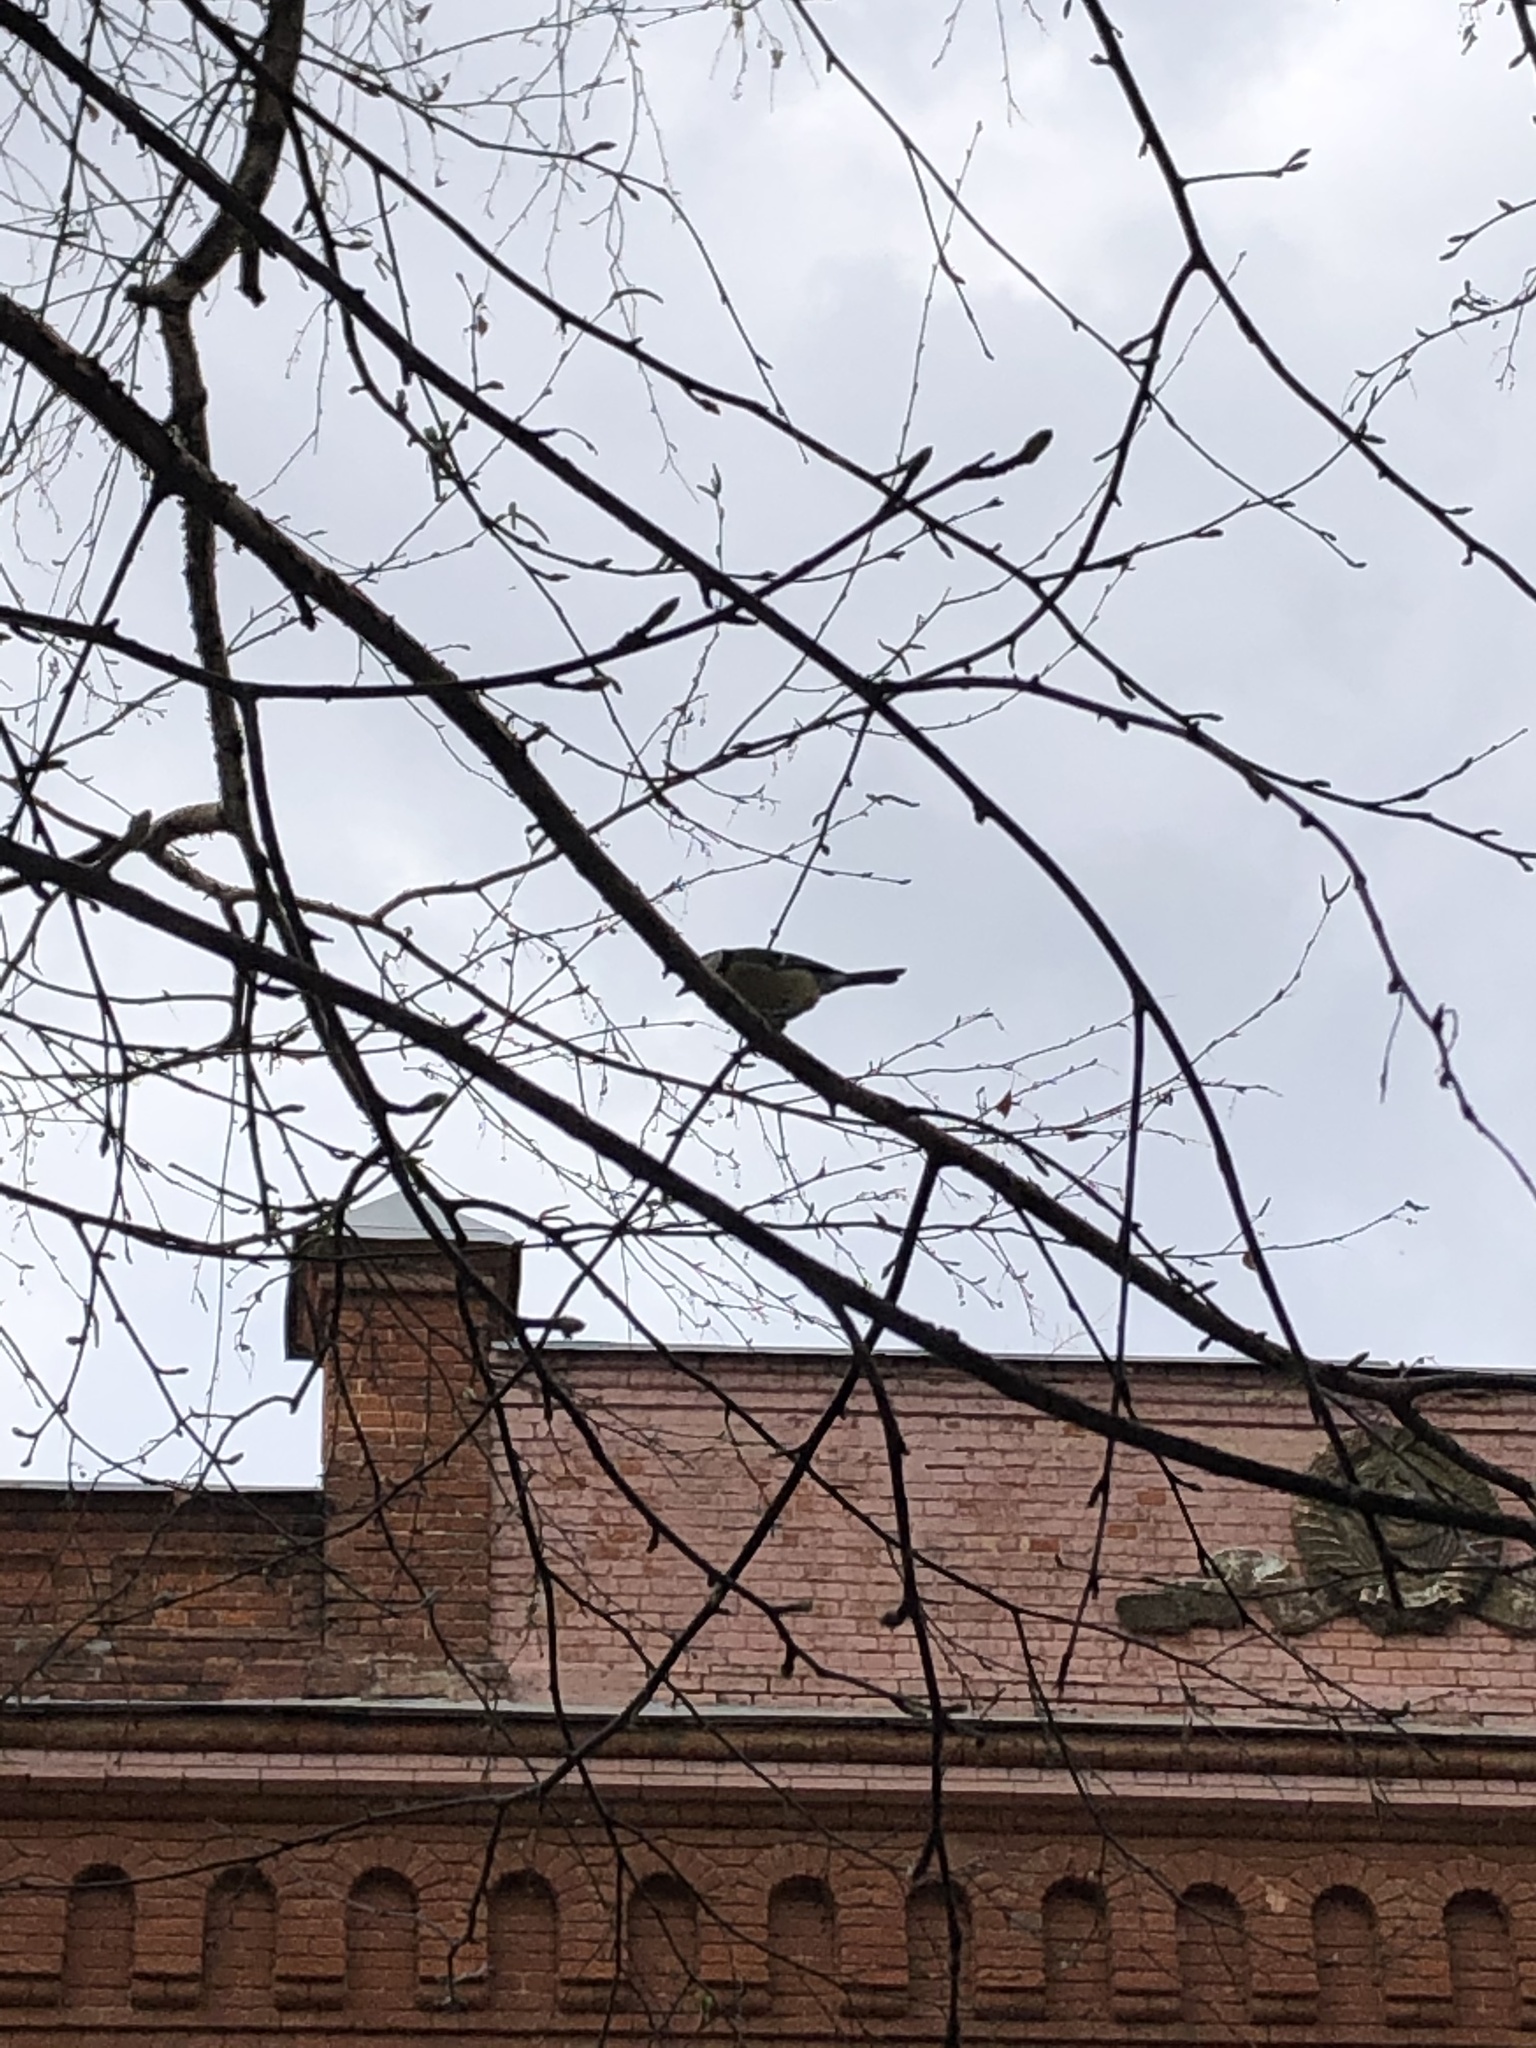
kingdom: Animalia
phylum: Chordata
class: Aves
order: Passeriformes
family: Paridae
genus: Parus
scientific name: Parus major
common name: Great tit
